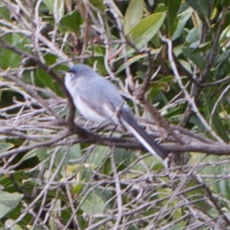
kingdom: Animalia
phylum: Chordata
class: Aves
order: Passeriformes
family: Polioptilidae
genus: Polioptila
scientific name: Polioptila caerulea
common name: Blue-gray gnatcatcher
